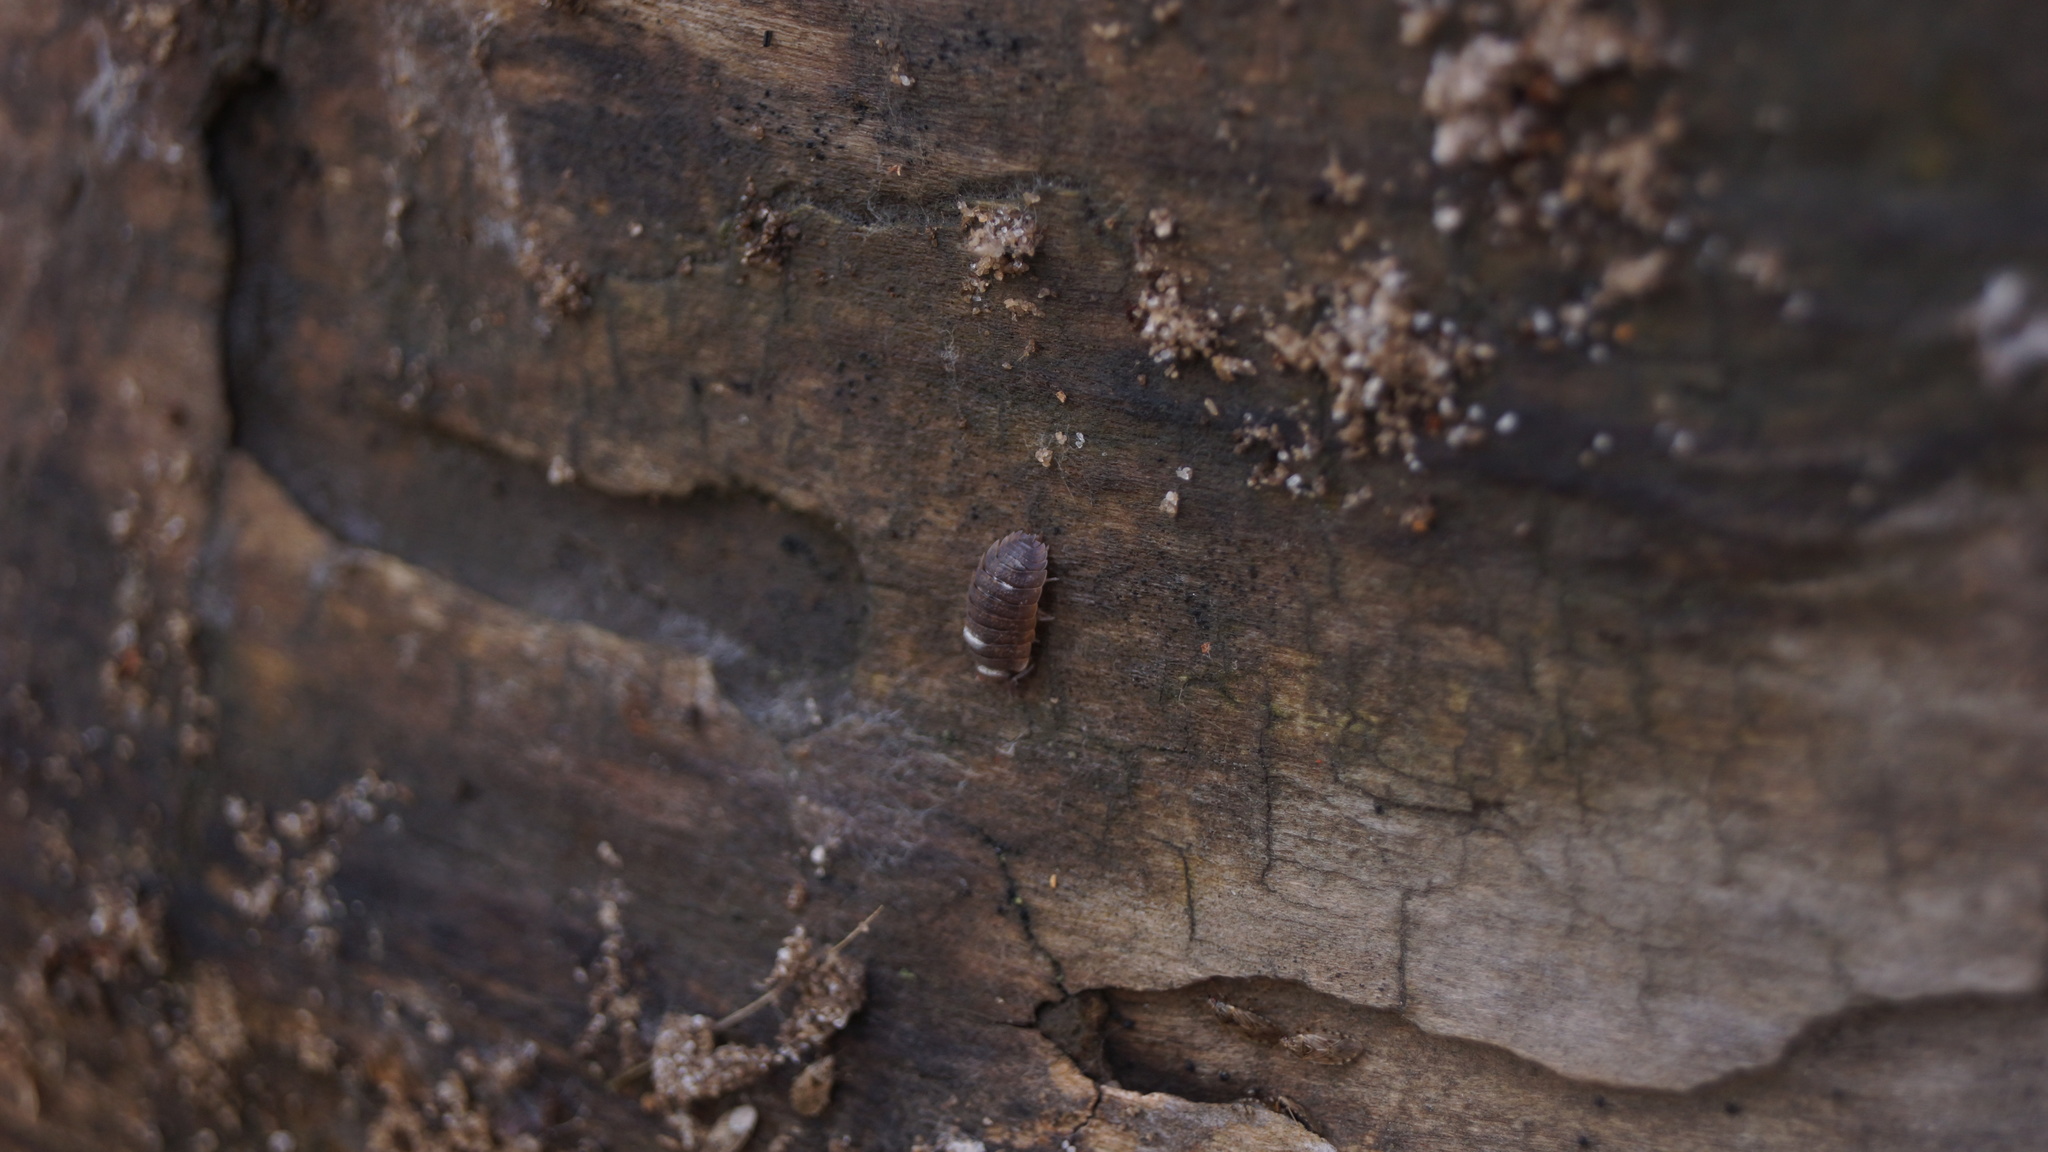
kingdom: Animalia
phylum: Arthropoda
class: Malacostraca
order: Isopoda
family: Porcellionidae
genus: Porcellio
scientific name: Porcellio scaber
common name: Common rough woodlouse
